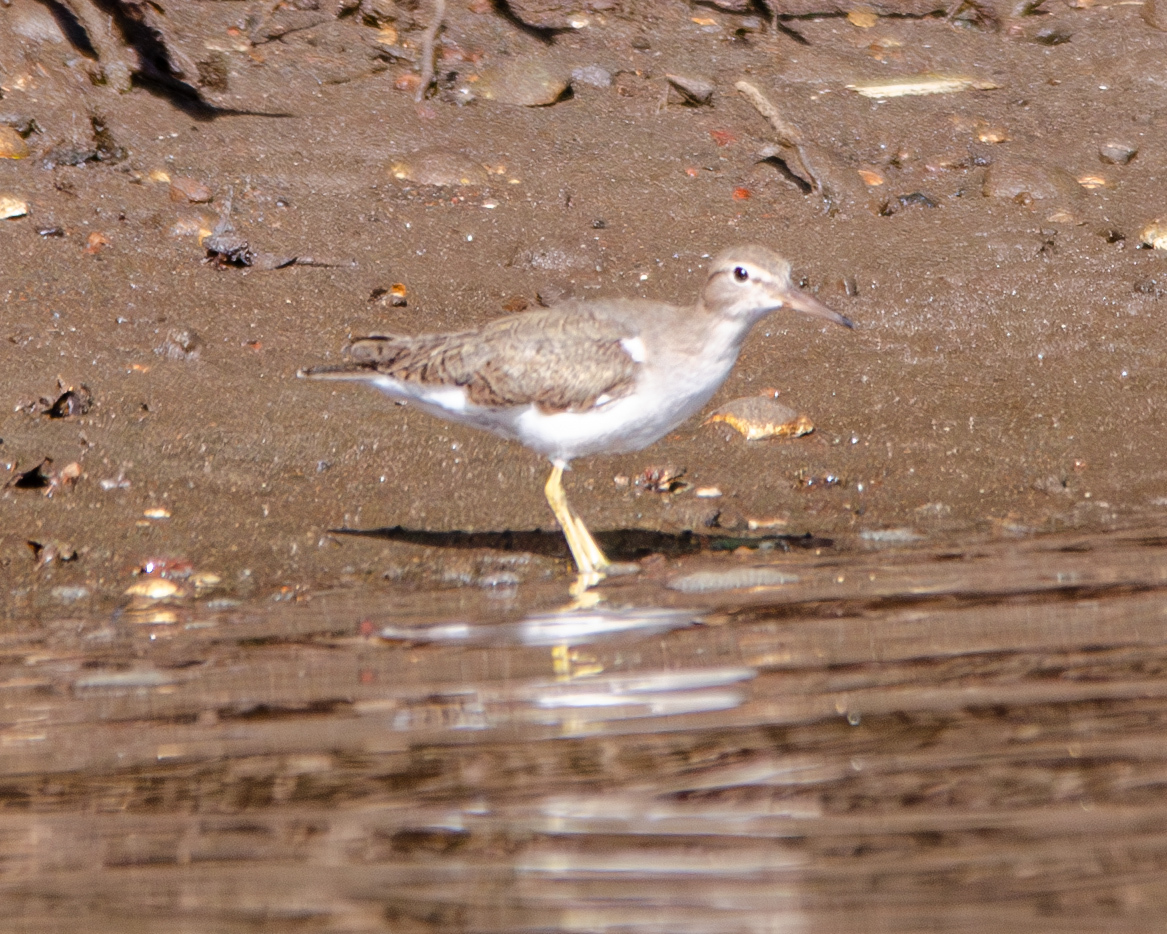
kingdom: Animalia
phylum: Chordata
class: Aves
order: Charadriiformes
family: Scolopacidae
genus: Actitis
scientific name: Actitis macularius
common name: Spotted sandpiper
